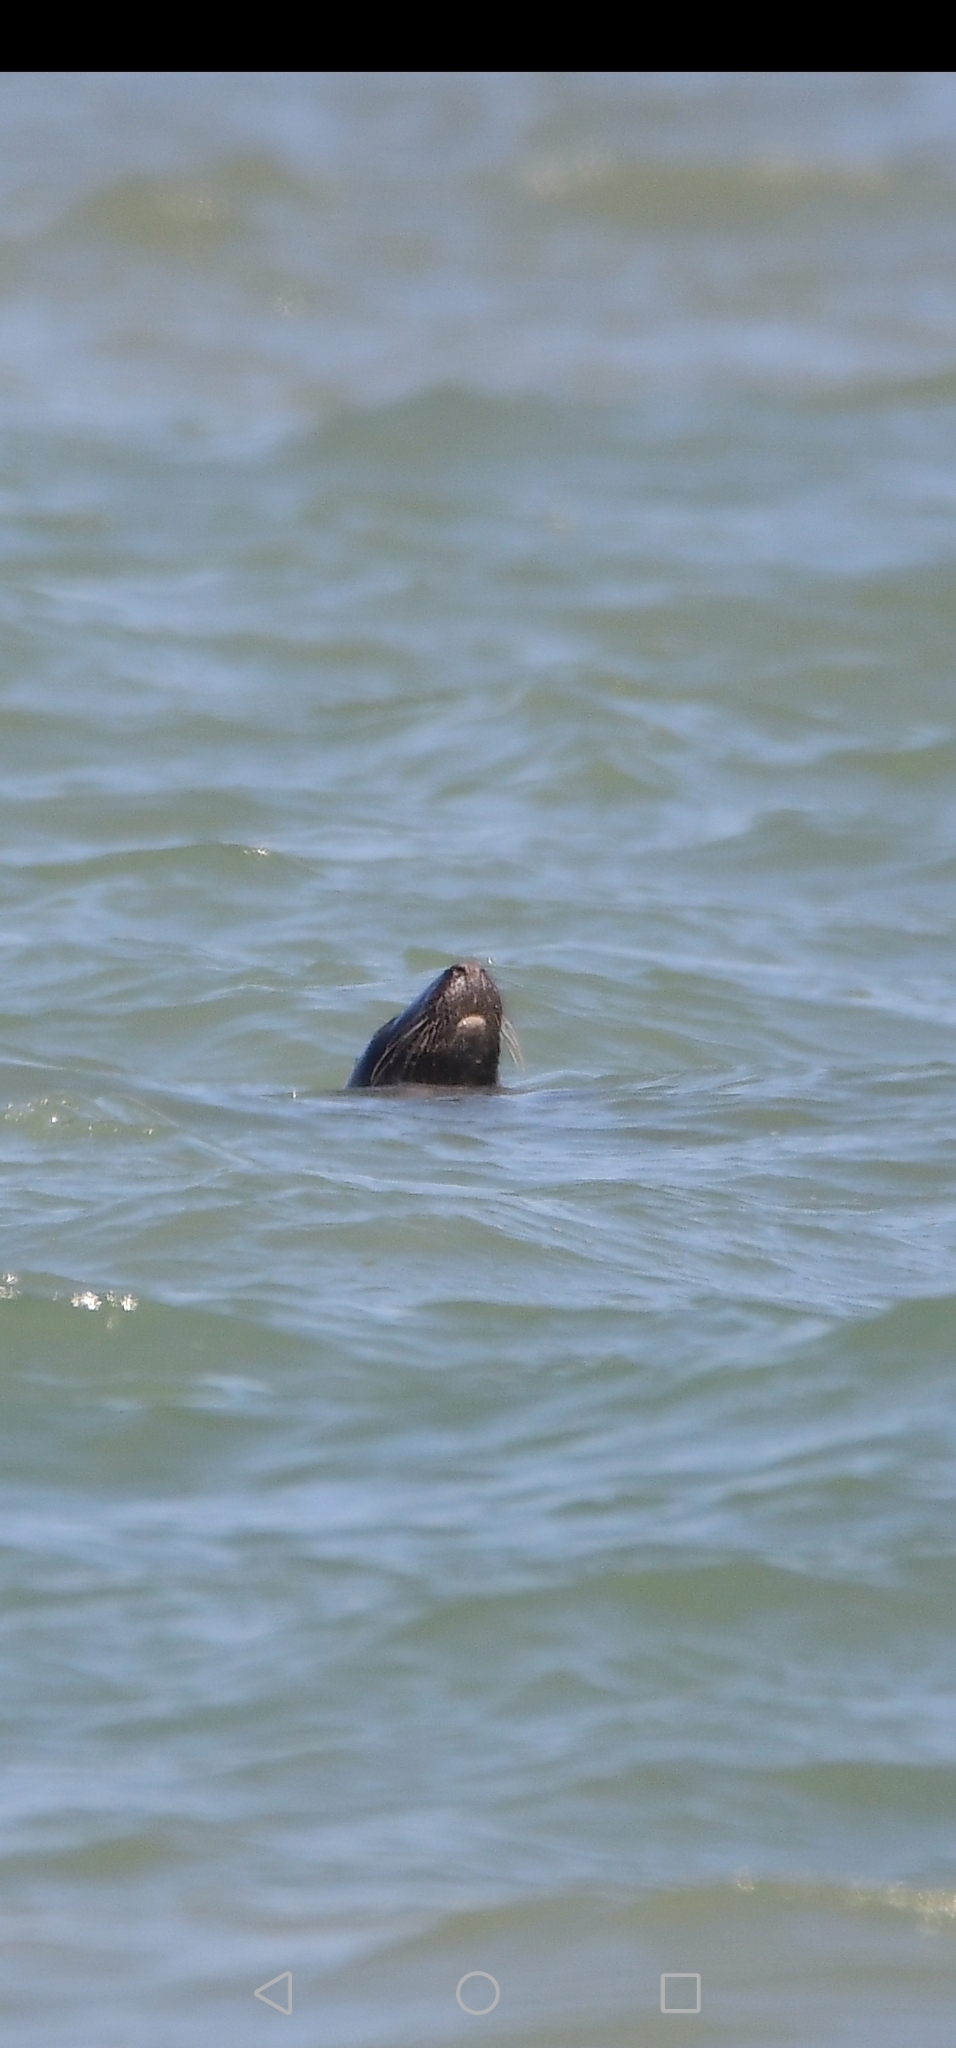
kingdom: Animalia
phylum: Chordata
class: Mammalia
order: Carnivora
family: Phocidae
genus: Halichoerus
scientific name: Halichoerus grypus
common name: Grey seal
